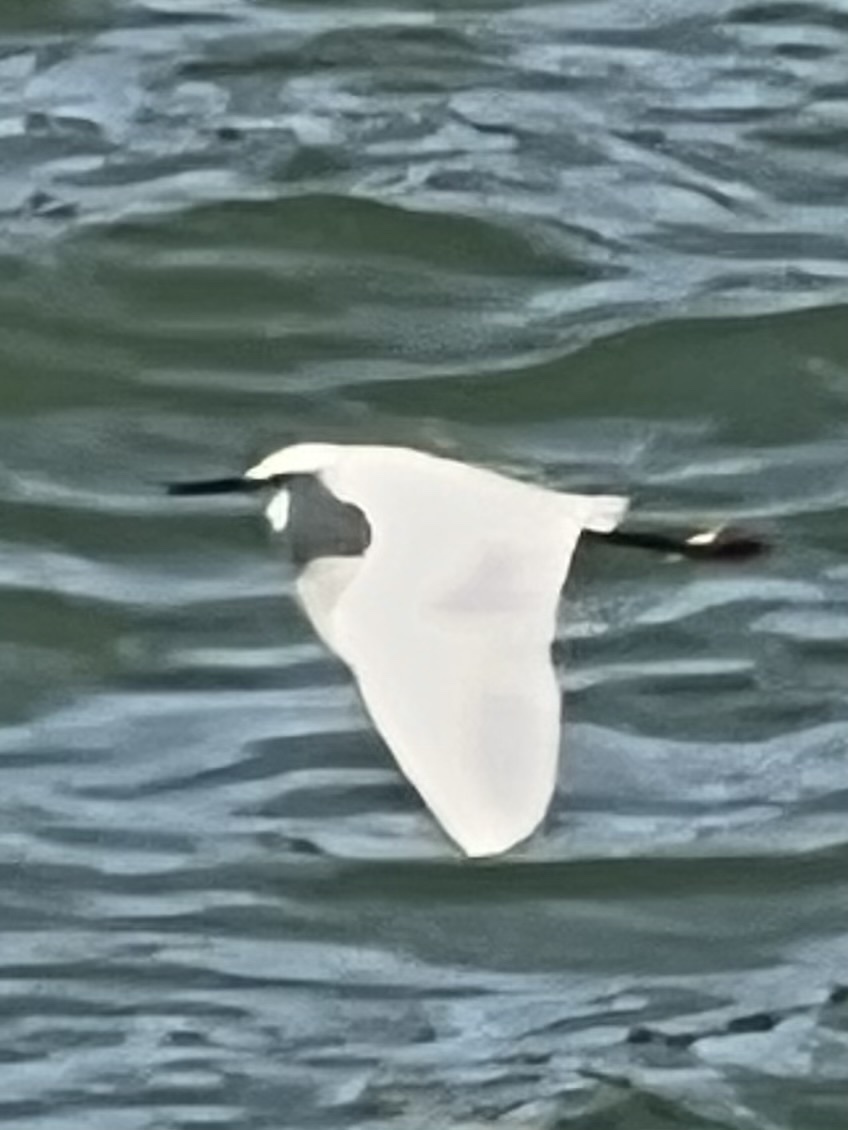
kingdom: Animalia
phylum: Chordata
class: Aves
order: Pelecaniformes
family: Ardeidae
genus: Egretta
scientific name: Egretta thula
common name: Snowy egret
